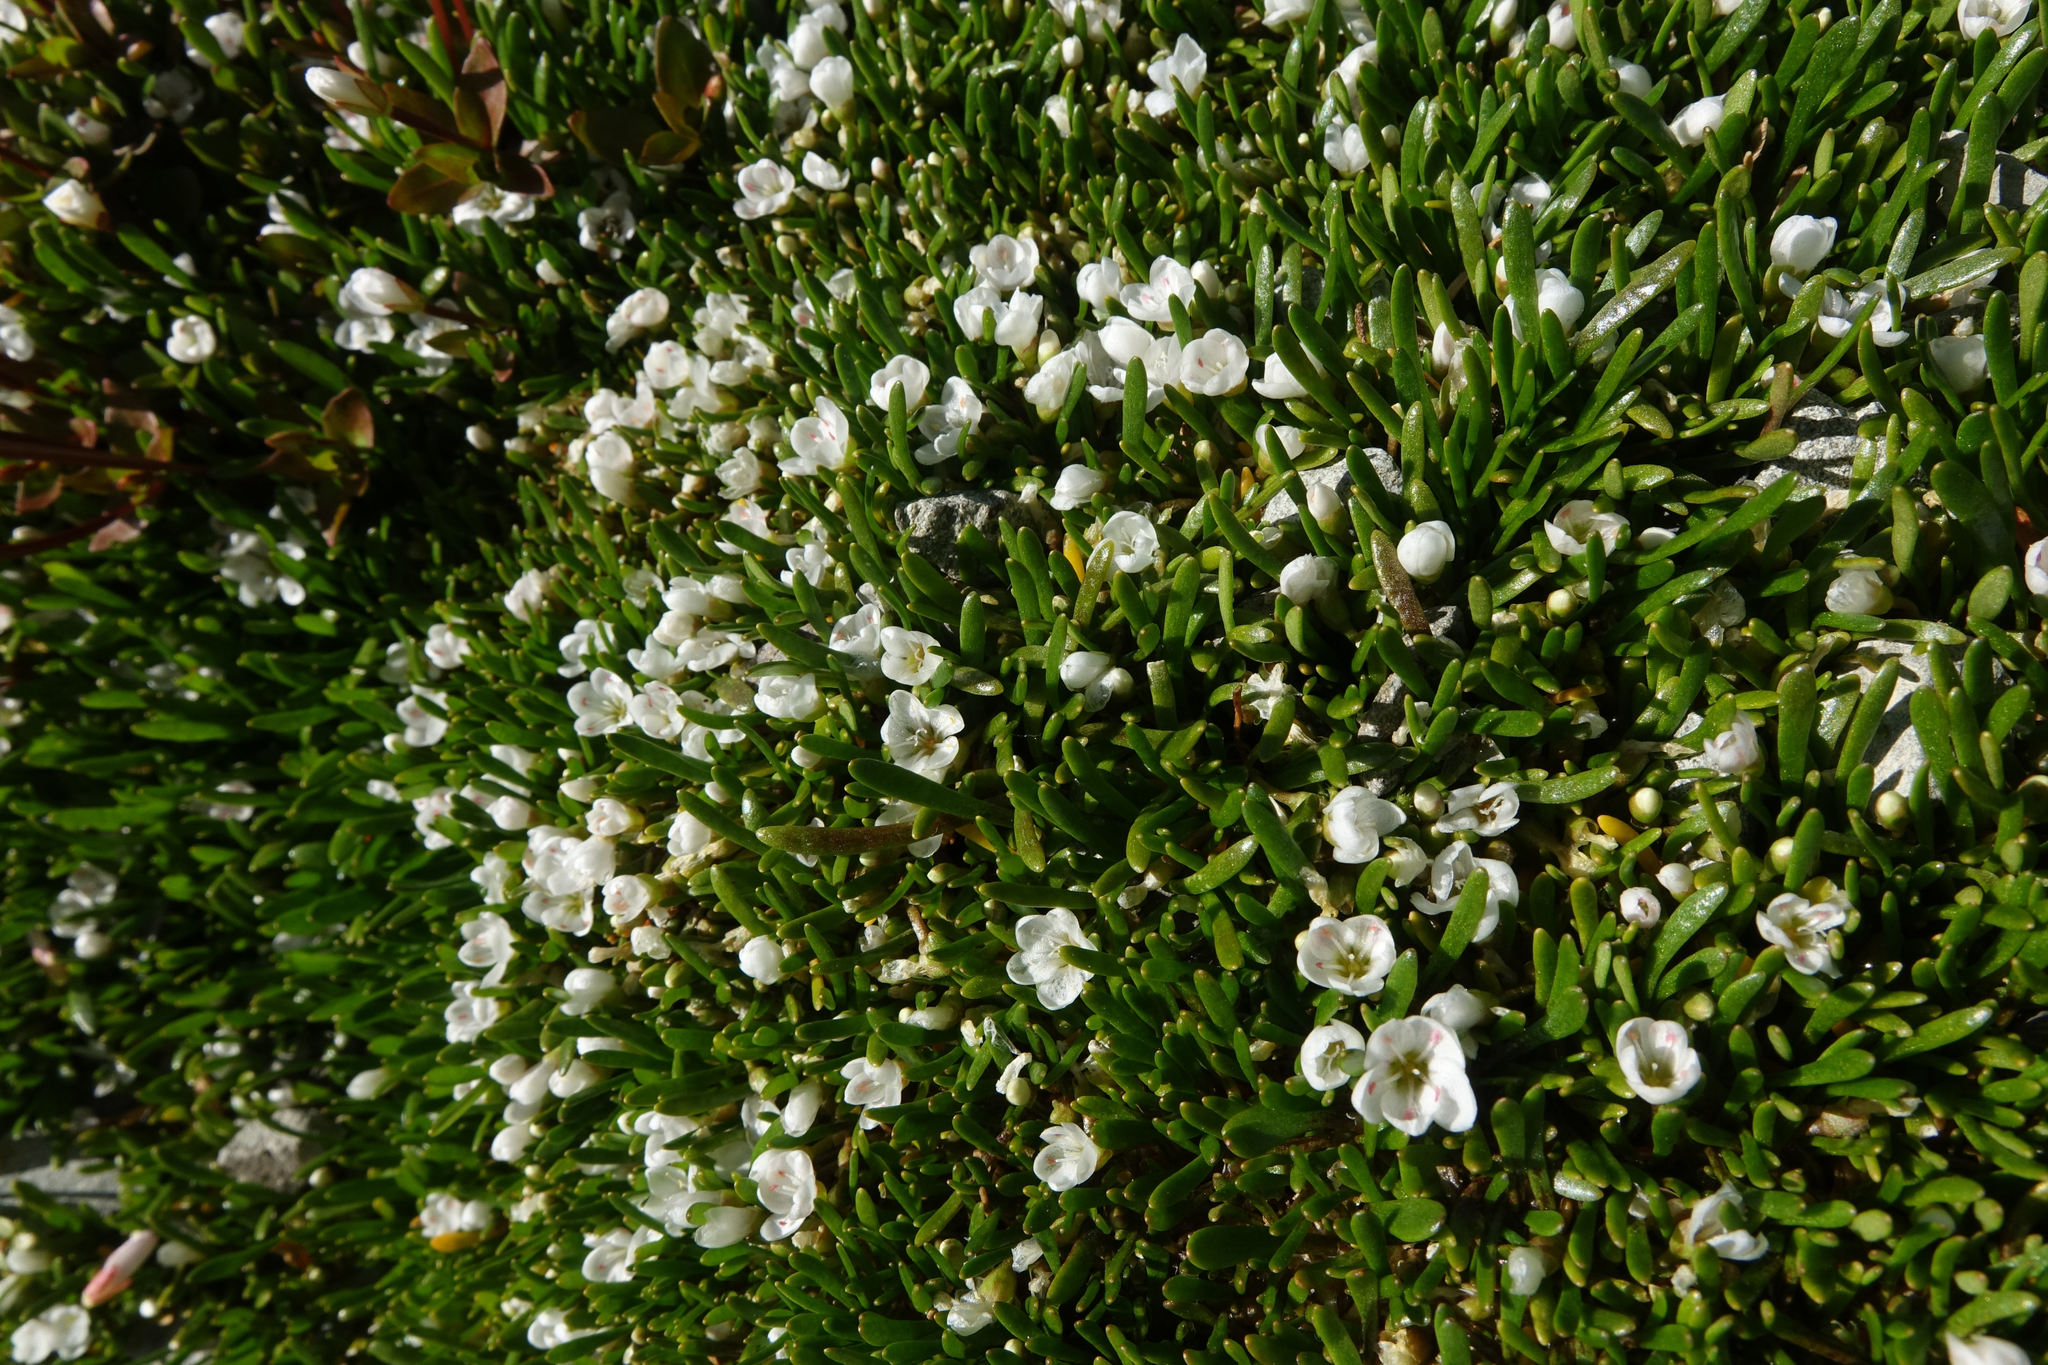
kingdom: Plantae
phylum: Tracheophyta
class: Magnoliopsida
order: Caryophyllales
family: Montiaceae
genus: Montia
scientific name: Montia sessiliflora
